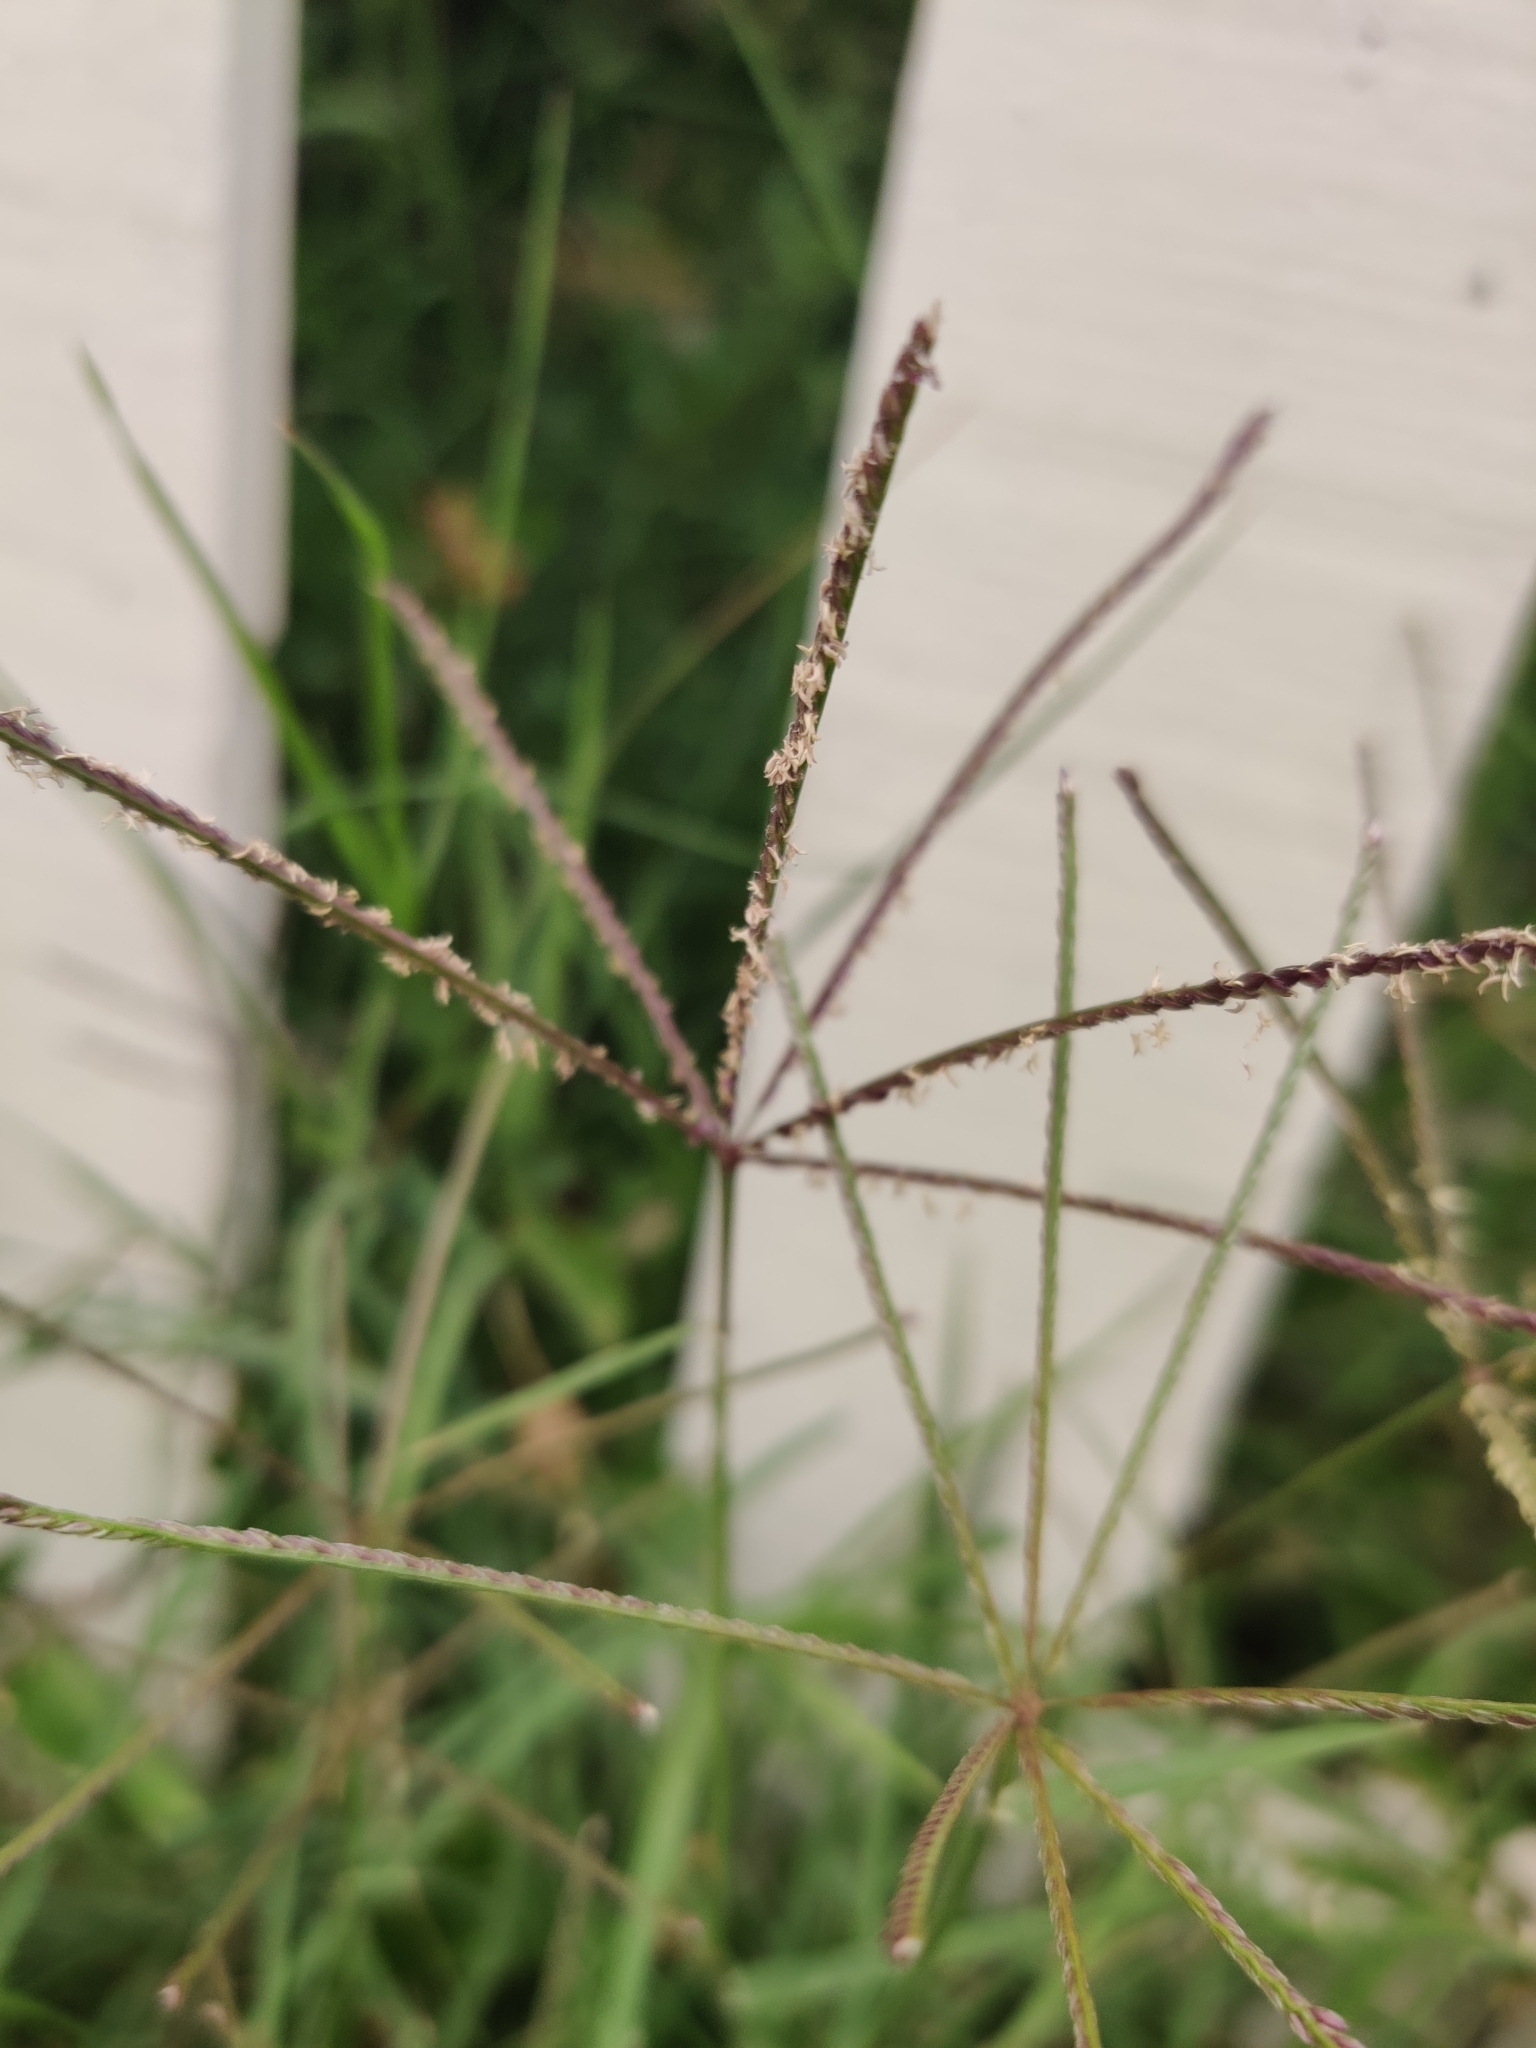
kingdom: Plantae
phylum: Tracheophyta
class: Liliopsida
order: Poales
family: Poaceae
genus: Cynodon
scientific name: Cynodon dactylon
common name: Bermuda grass
